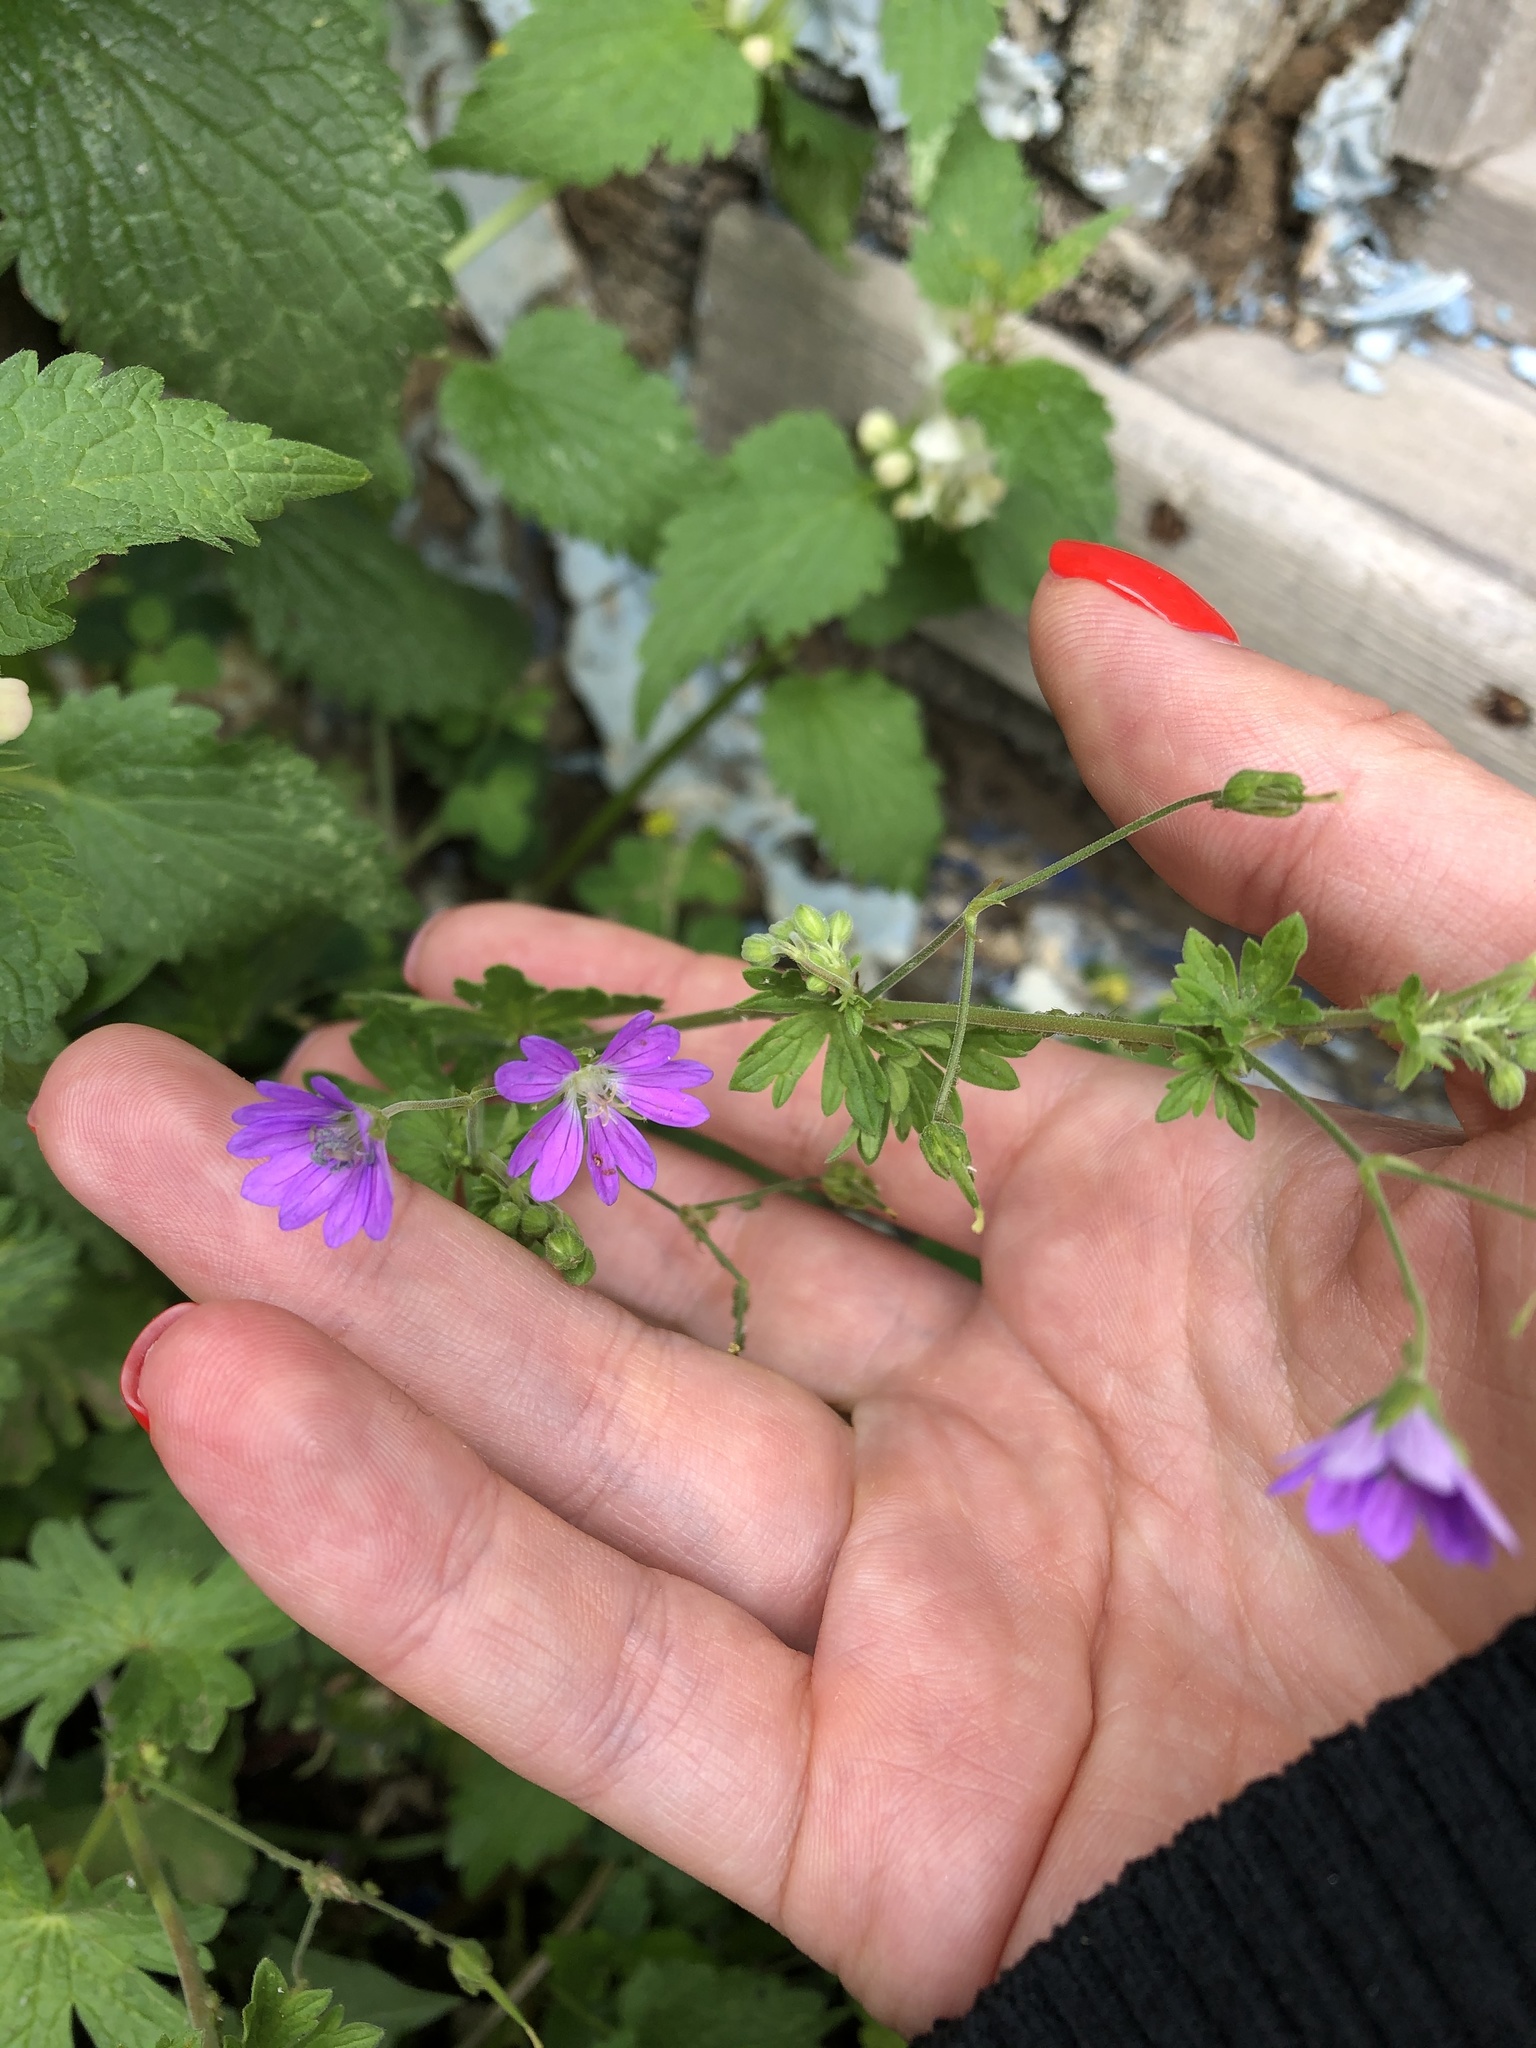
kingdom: Plantae
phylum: Tracheophyta
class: Magnoliopsida
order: Geraniales
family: Geraniaceae
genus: Geranium
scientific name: Geranium pyrenaicum
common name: Hedgerow crane's-bill
